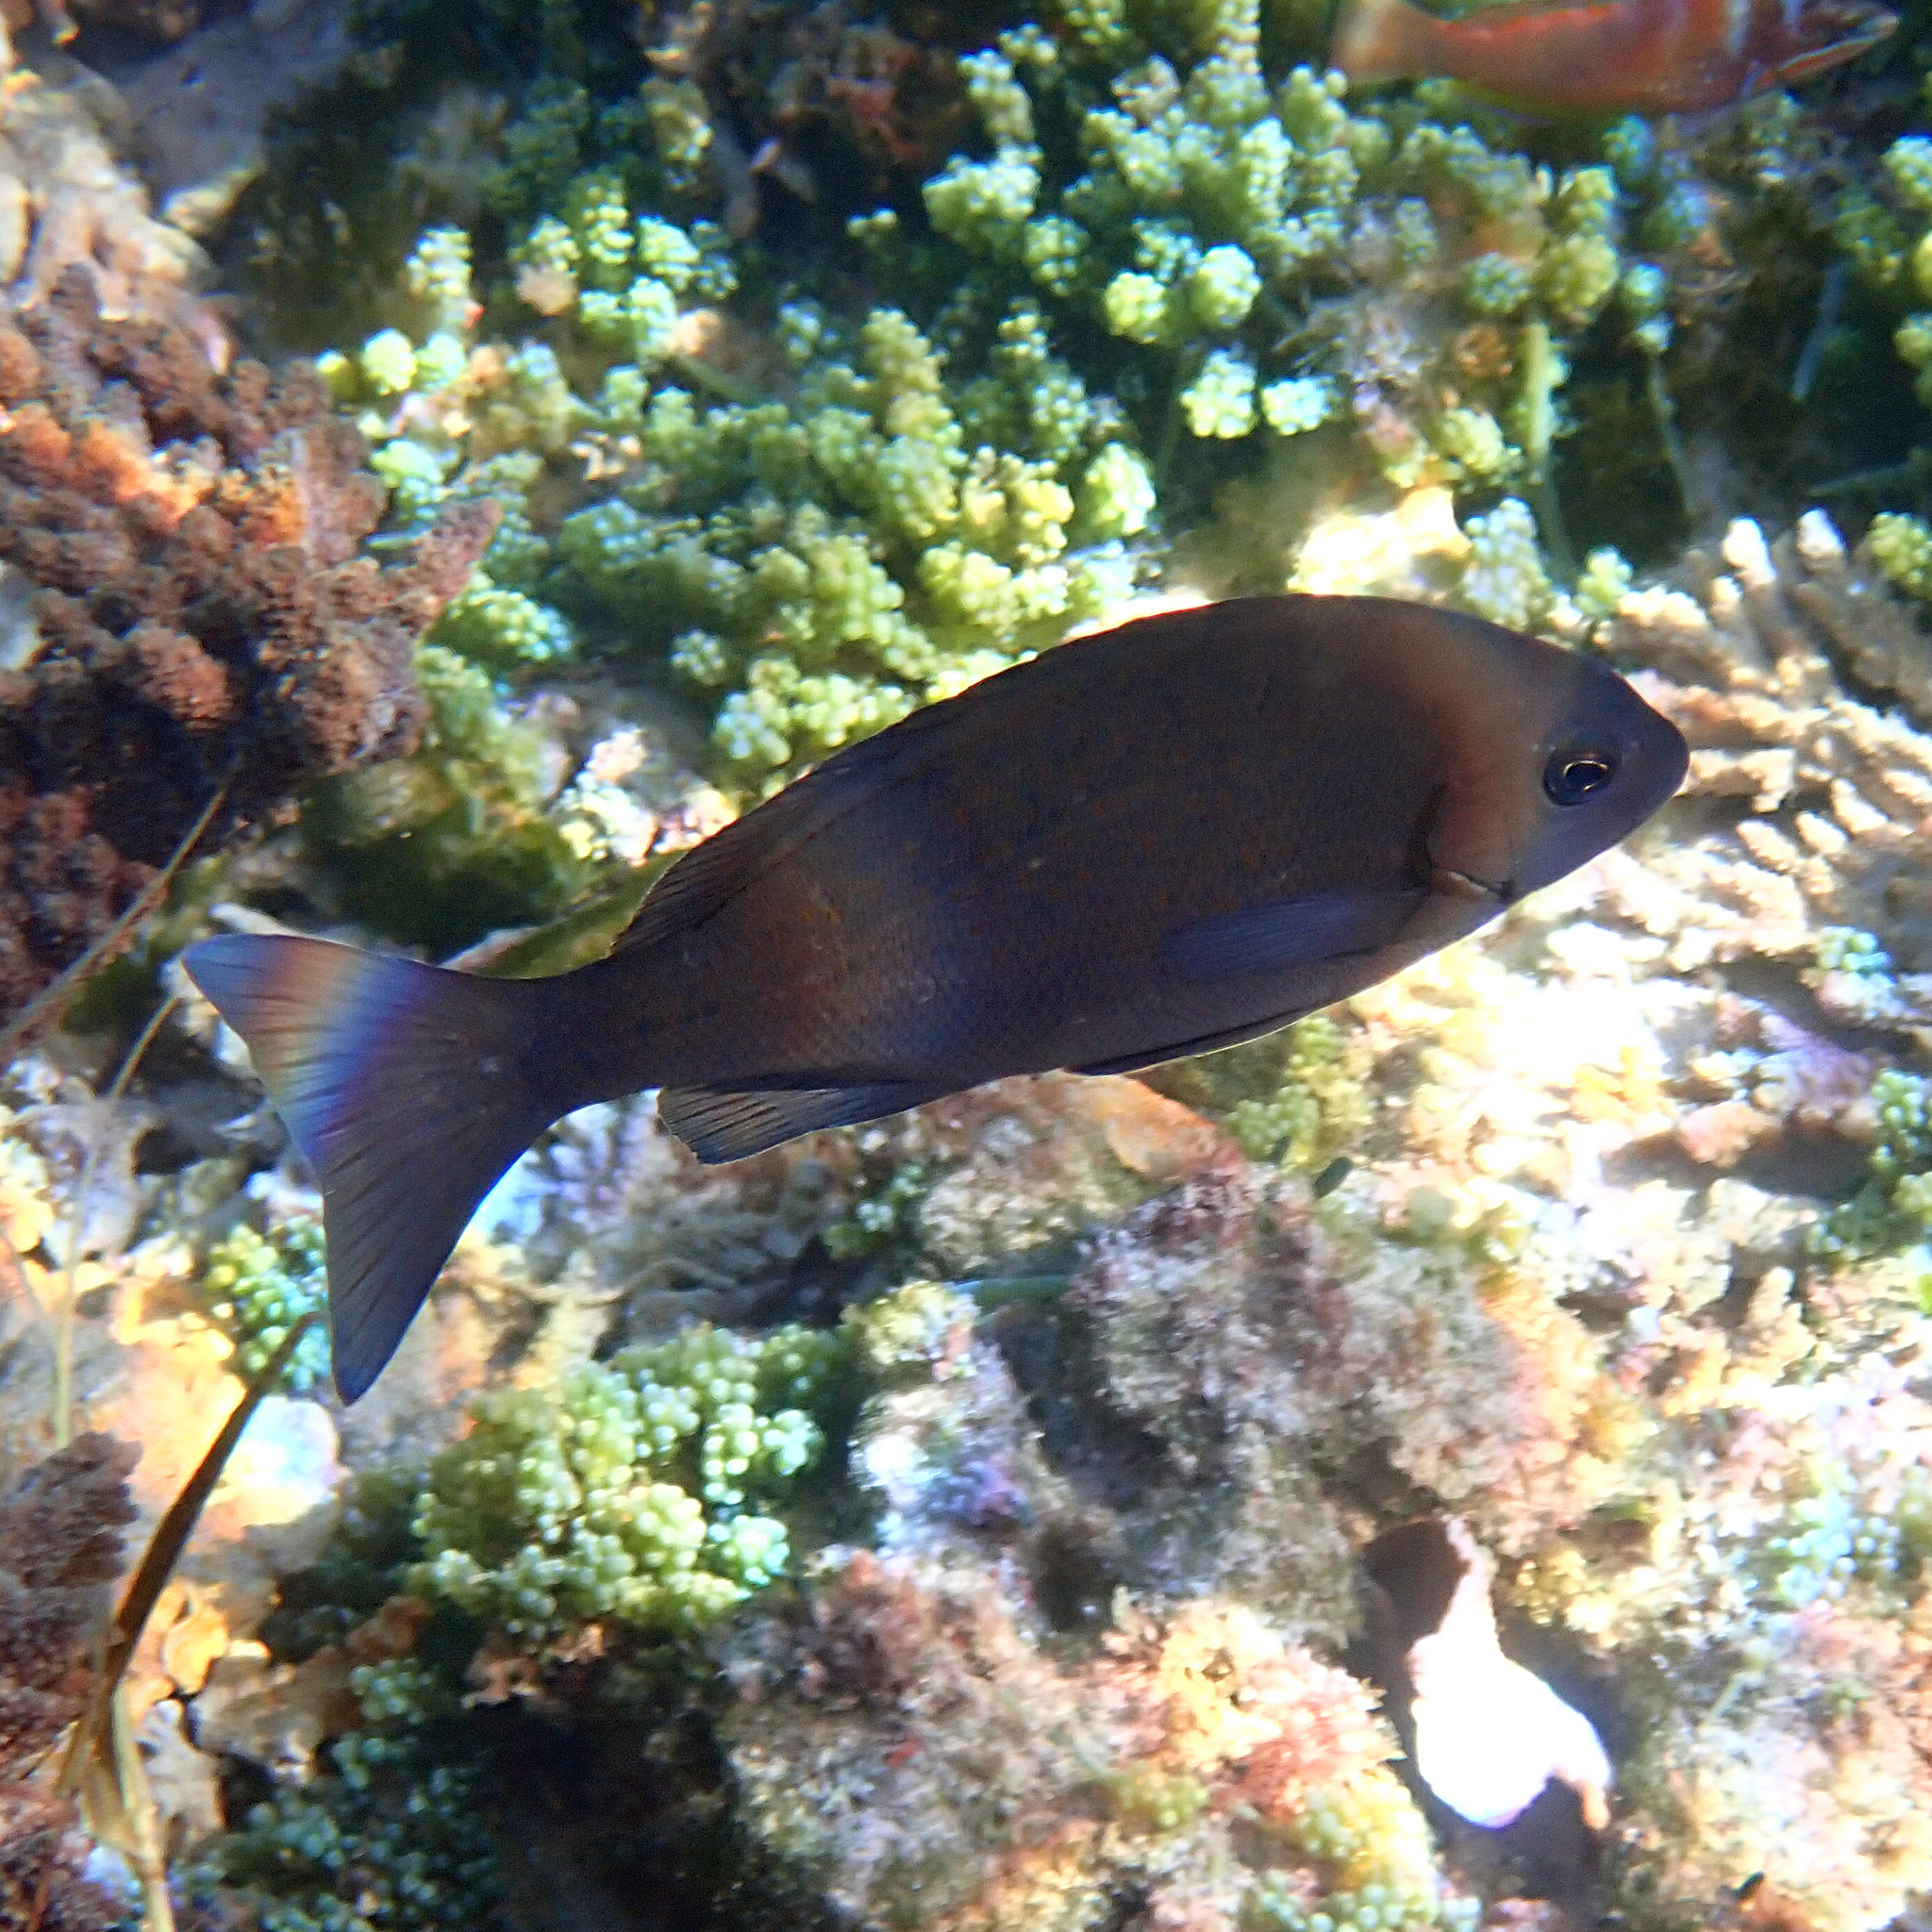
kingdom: Animalia
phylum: Chordata
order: Perciformes
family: Kyphosidae
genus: Girella
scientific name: Girella cyanea
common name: Bluefish
